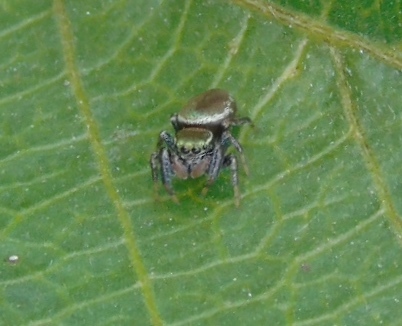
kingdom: Animalia
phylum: Arthropoda
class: Arachnida
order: Araneae
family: Salticidae
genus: Sassacus
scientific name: Sassacus vitis
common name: Jumping spiders
